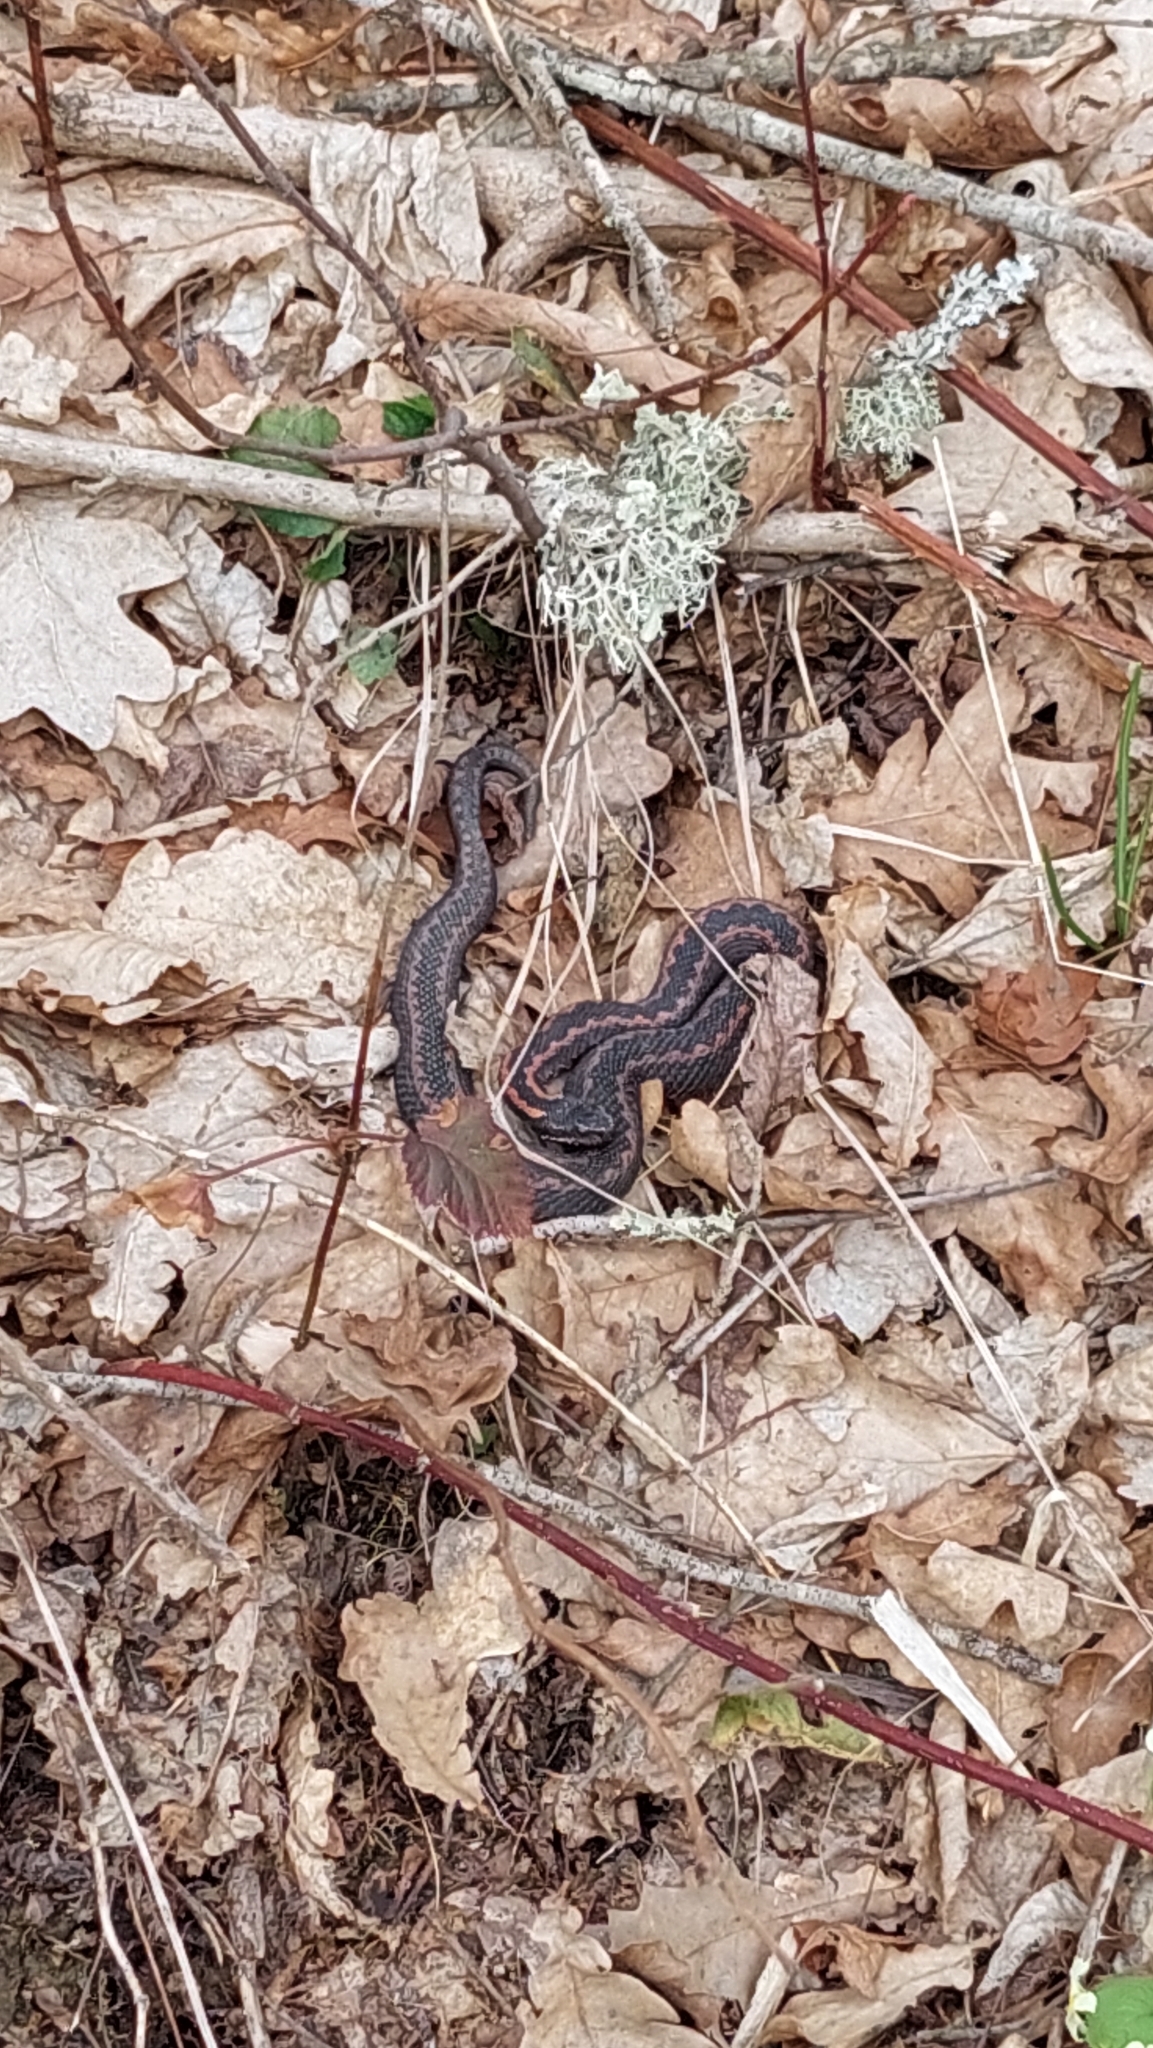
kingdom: Animalia
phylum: Chordata
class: Squamata
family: Viperidae
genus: Vipera
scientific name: Vipera kaznakovi
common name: Caucasus viper
